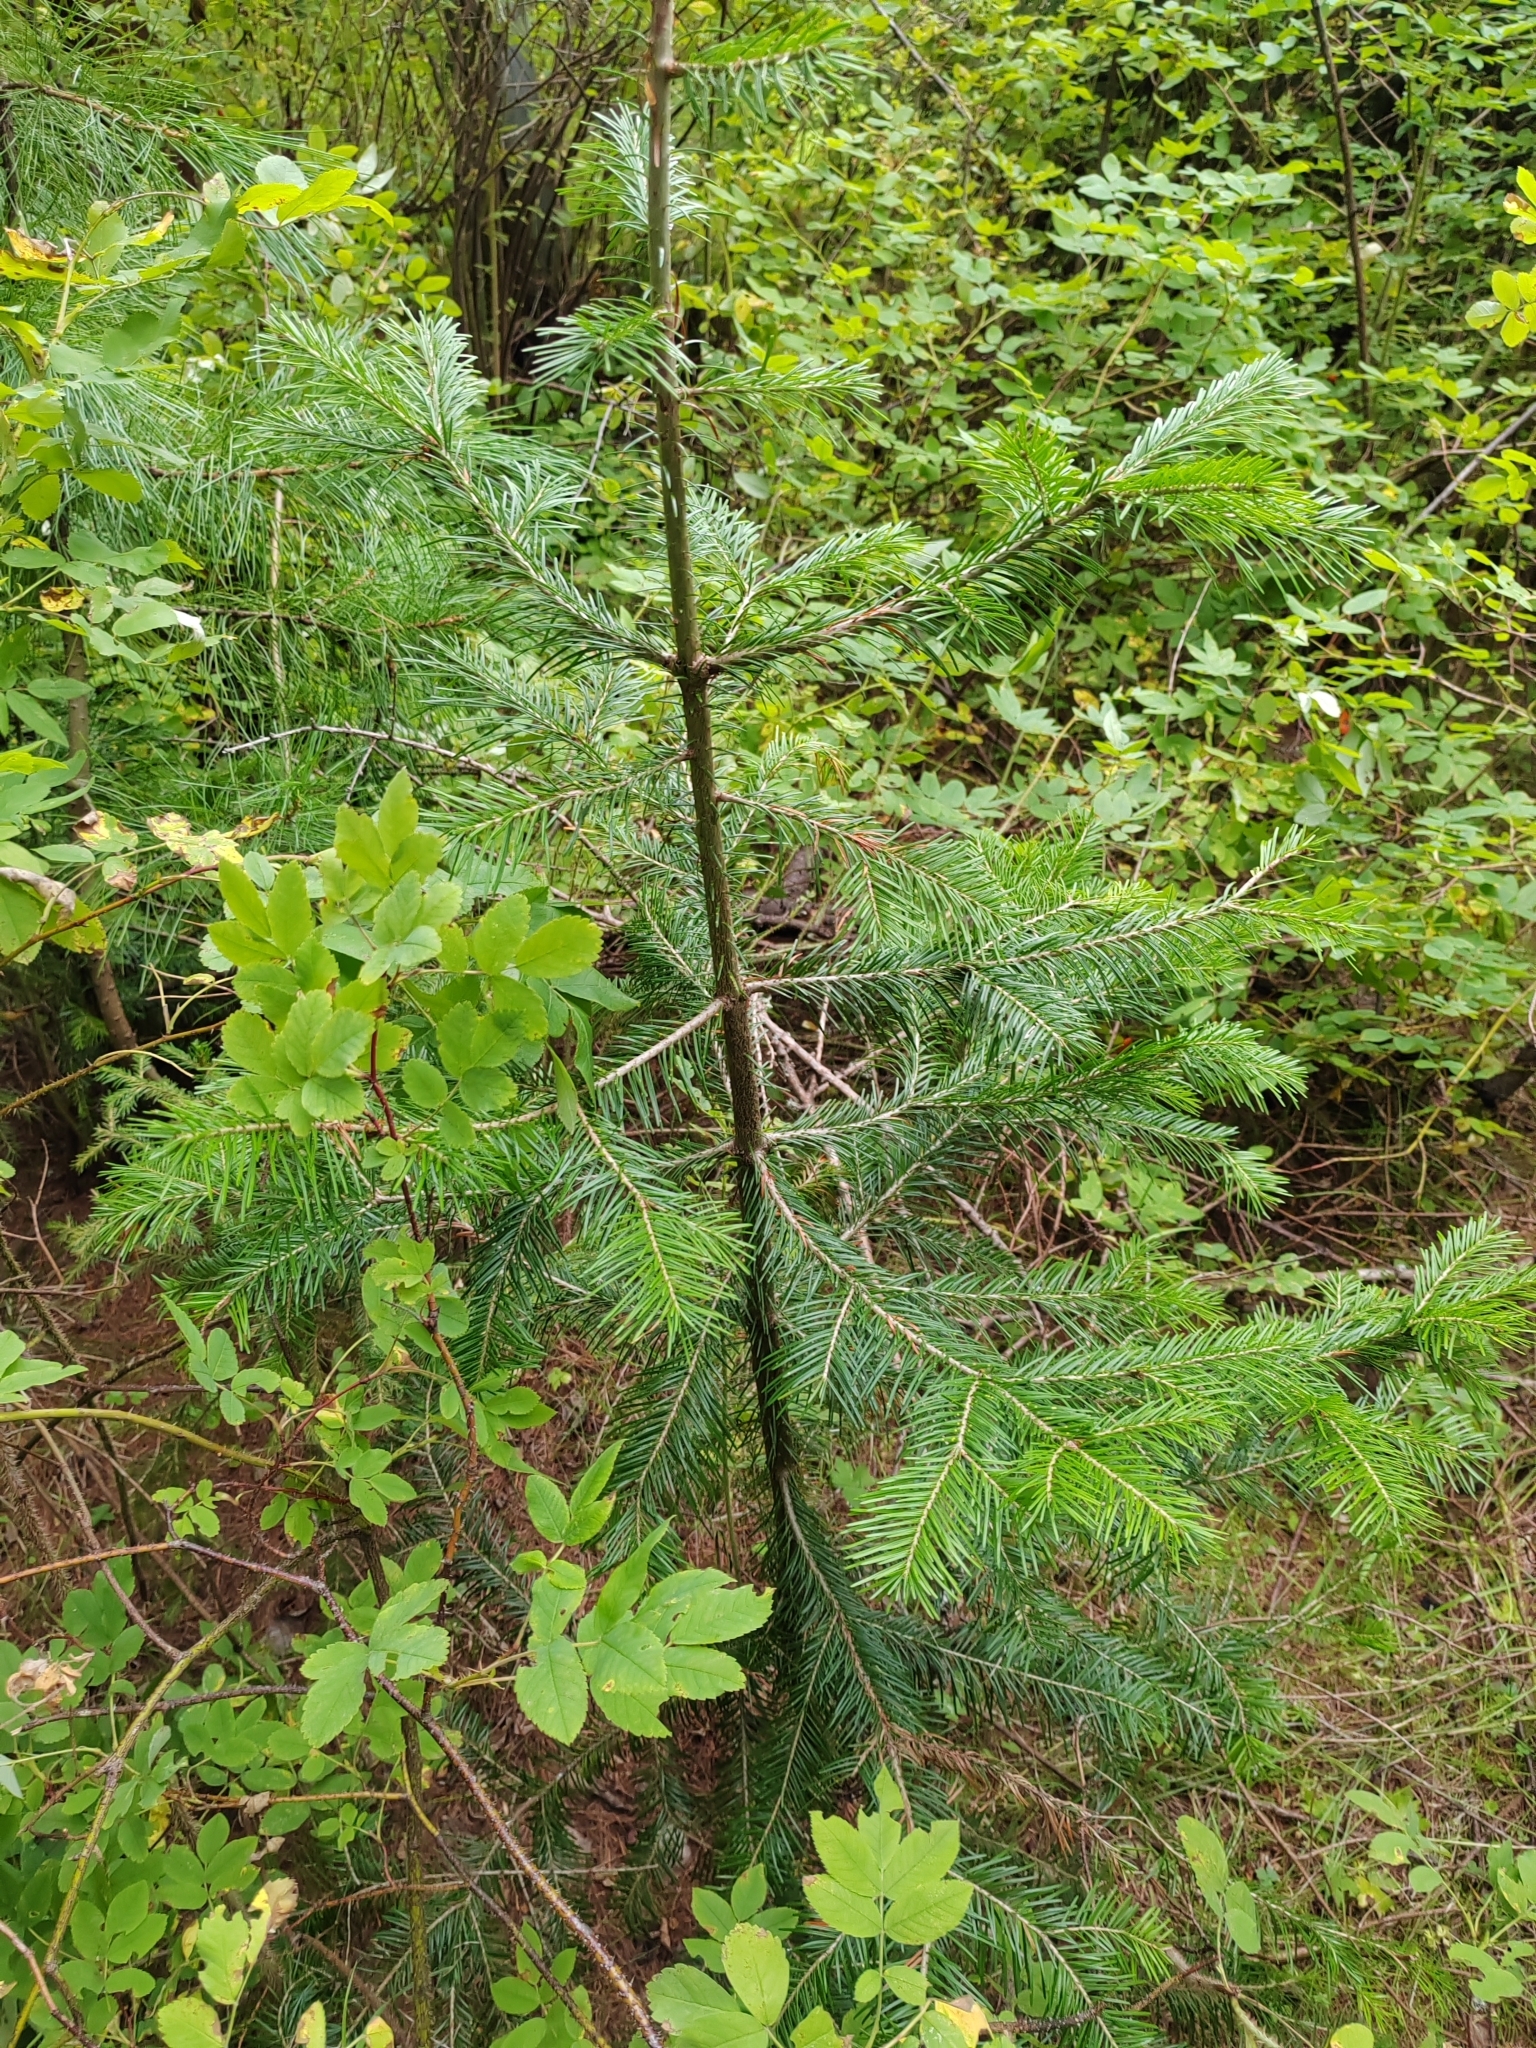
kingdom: Plantae
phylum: Tracheophyta
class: Pinopsida
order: Pinales
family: Pinaceae
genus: Abies
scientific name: Abies sibirica
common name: Siberian fir
